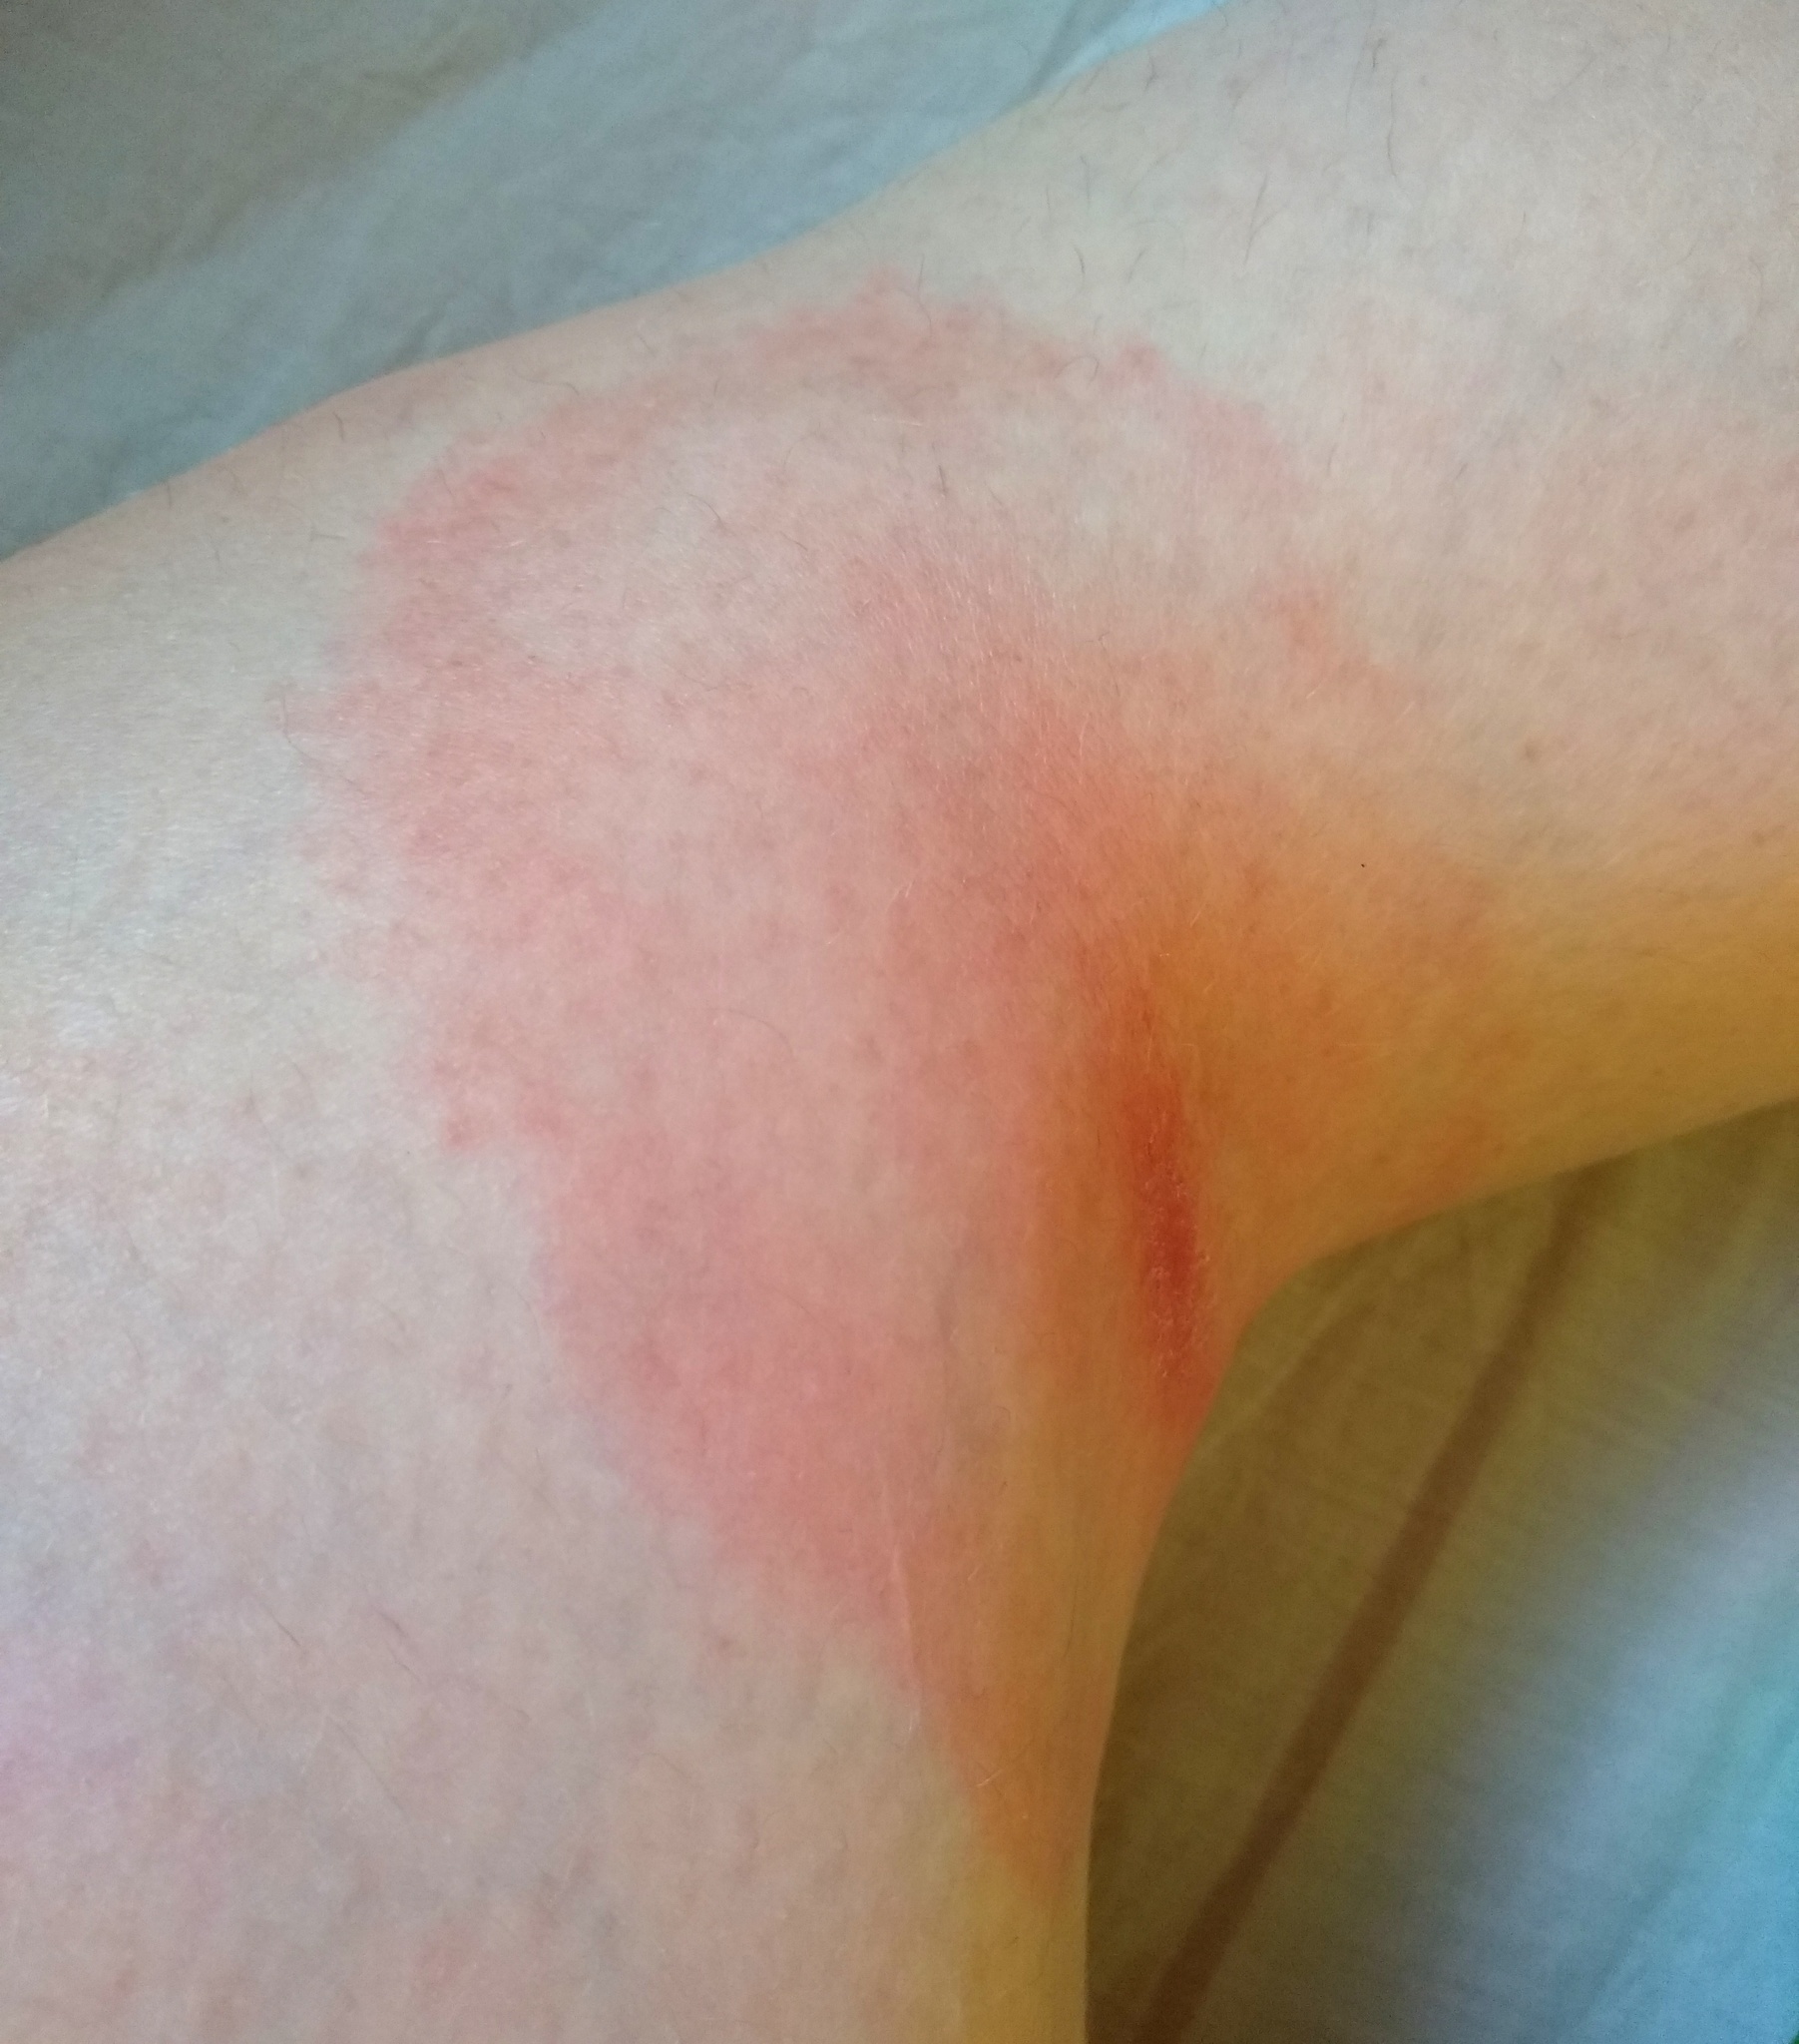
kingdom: Bacteria
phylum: Spirochaetota
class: Spirochaetia
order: Borreliales
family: Borreliaceae
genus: Borrelia
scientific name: Borrelia
